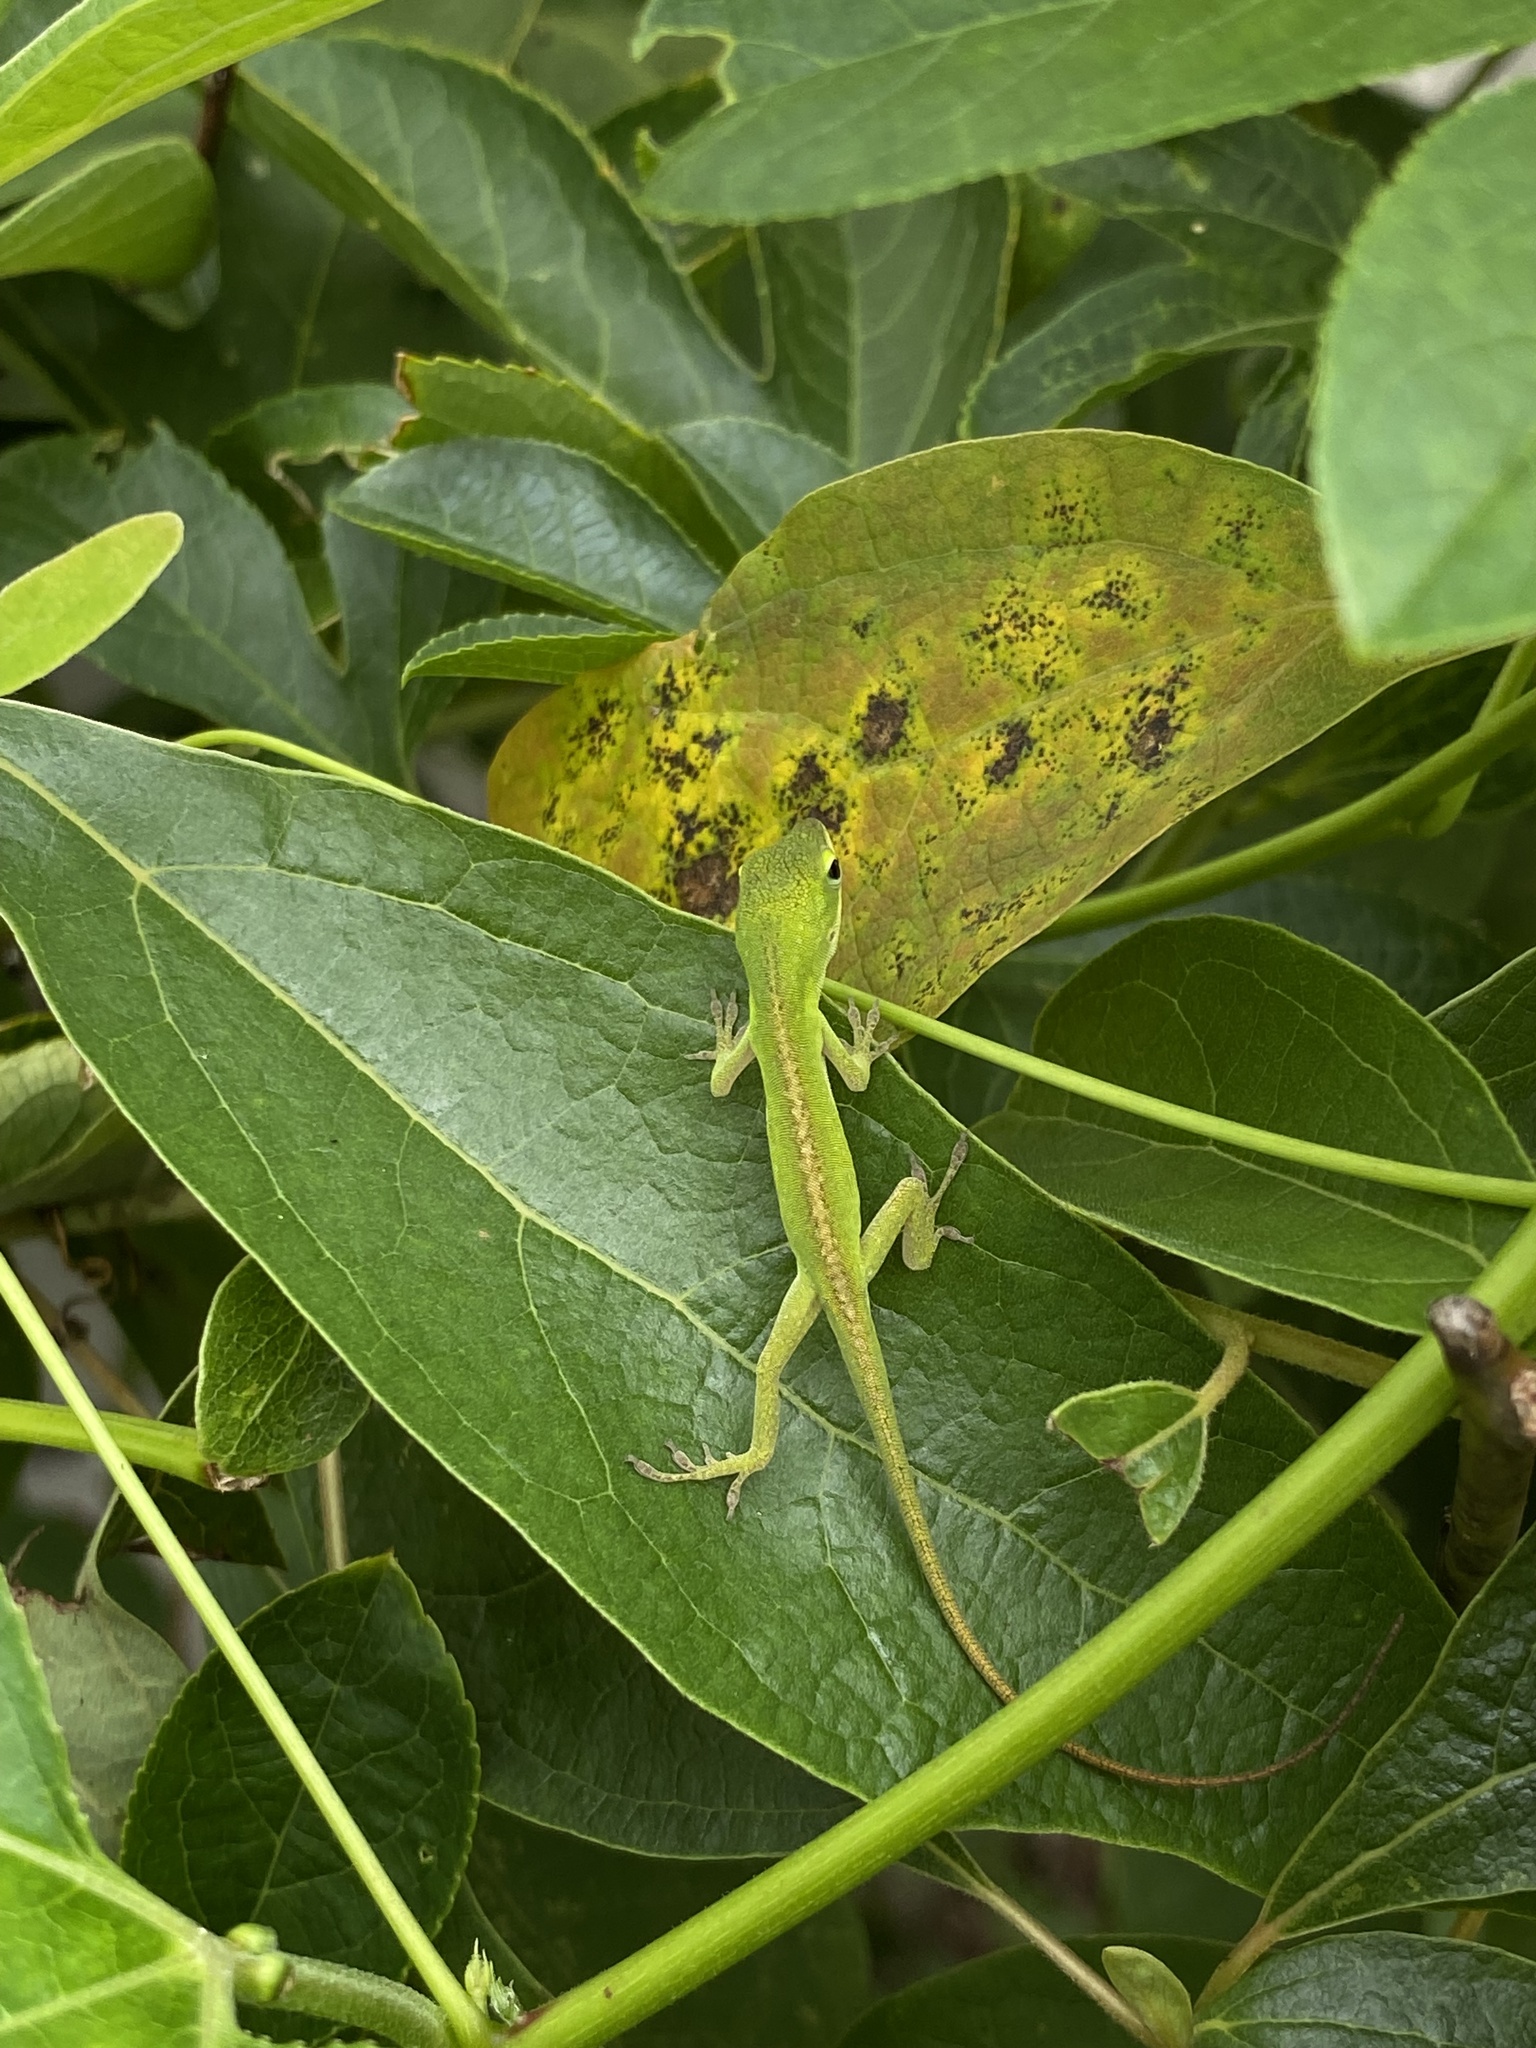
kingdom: Animalia
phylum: Chordata
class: Squamata
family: Dactyloidae
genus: Anolis
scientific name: Anolis carolinensis
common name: Green anole
